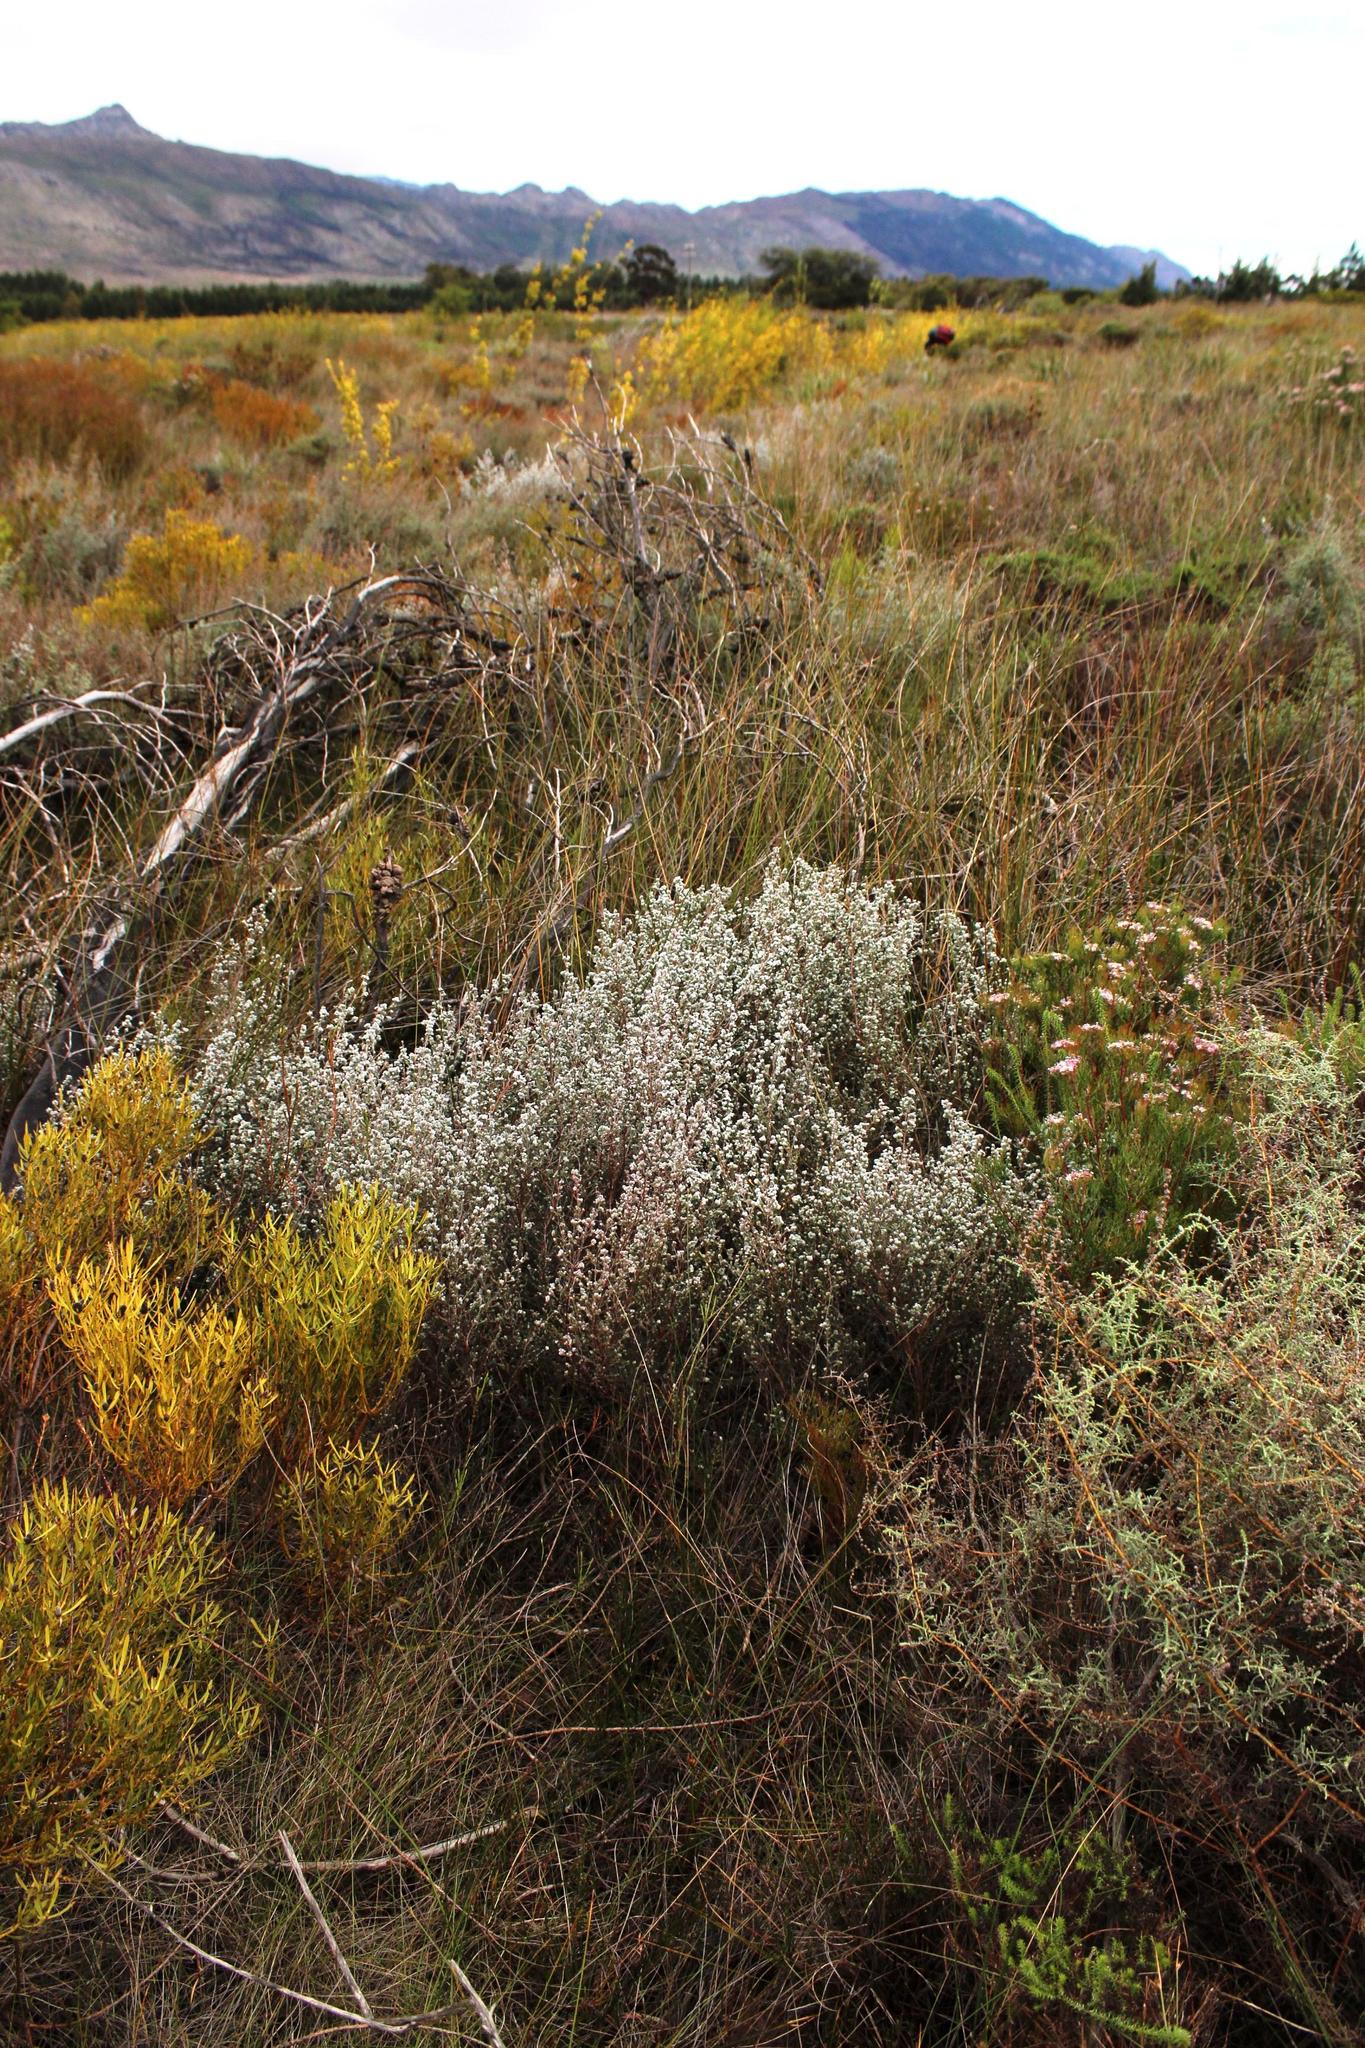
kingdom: Plantae
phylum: Tracheophyta
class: Magnoliopsida
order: Ericales
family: Ericaceae
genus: Erica
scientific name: Erica bruniades
